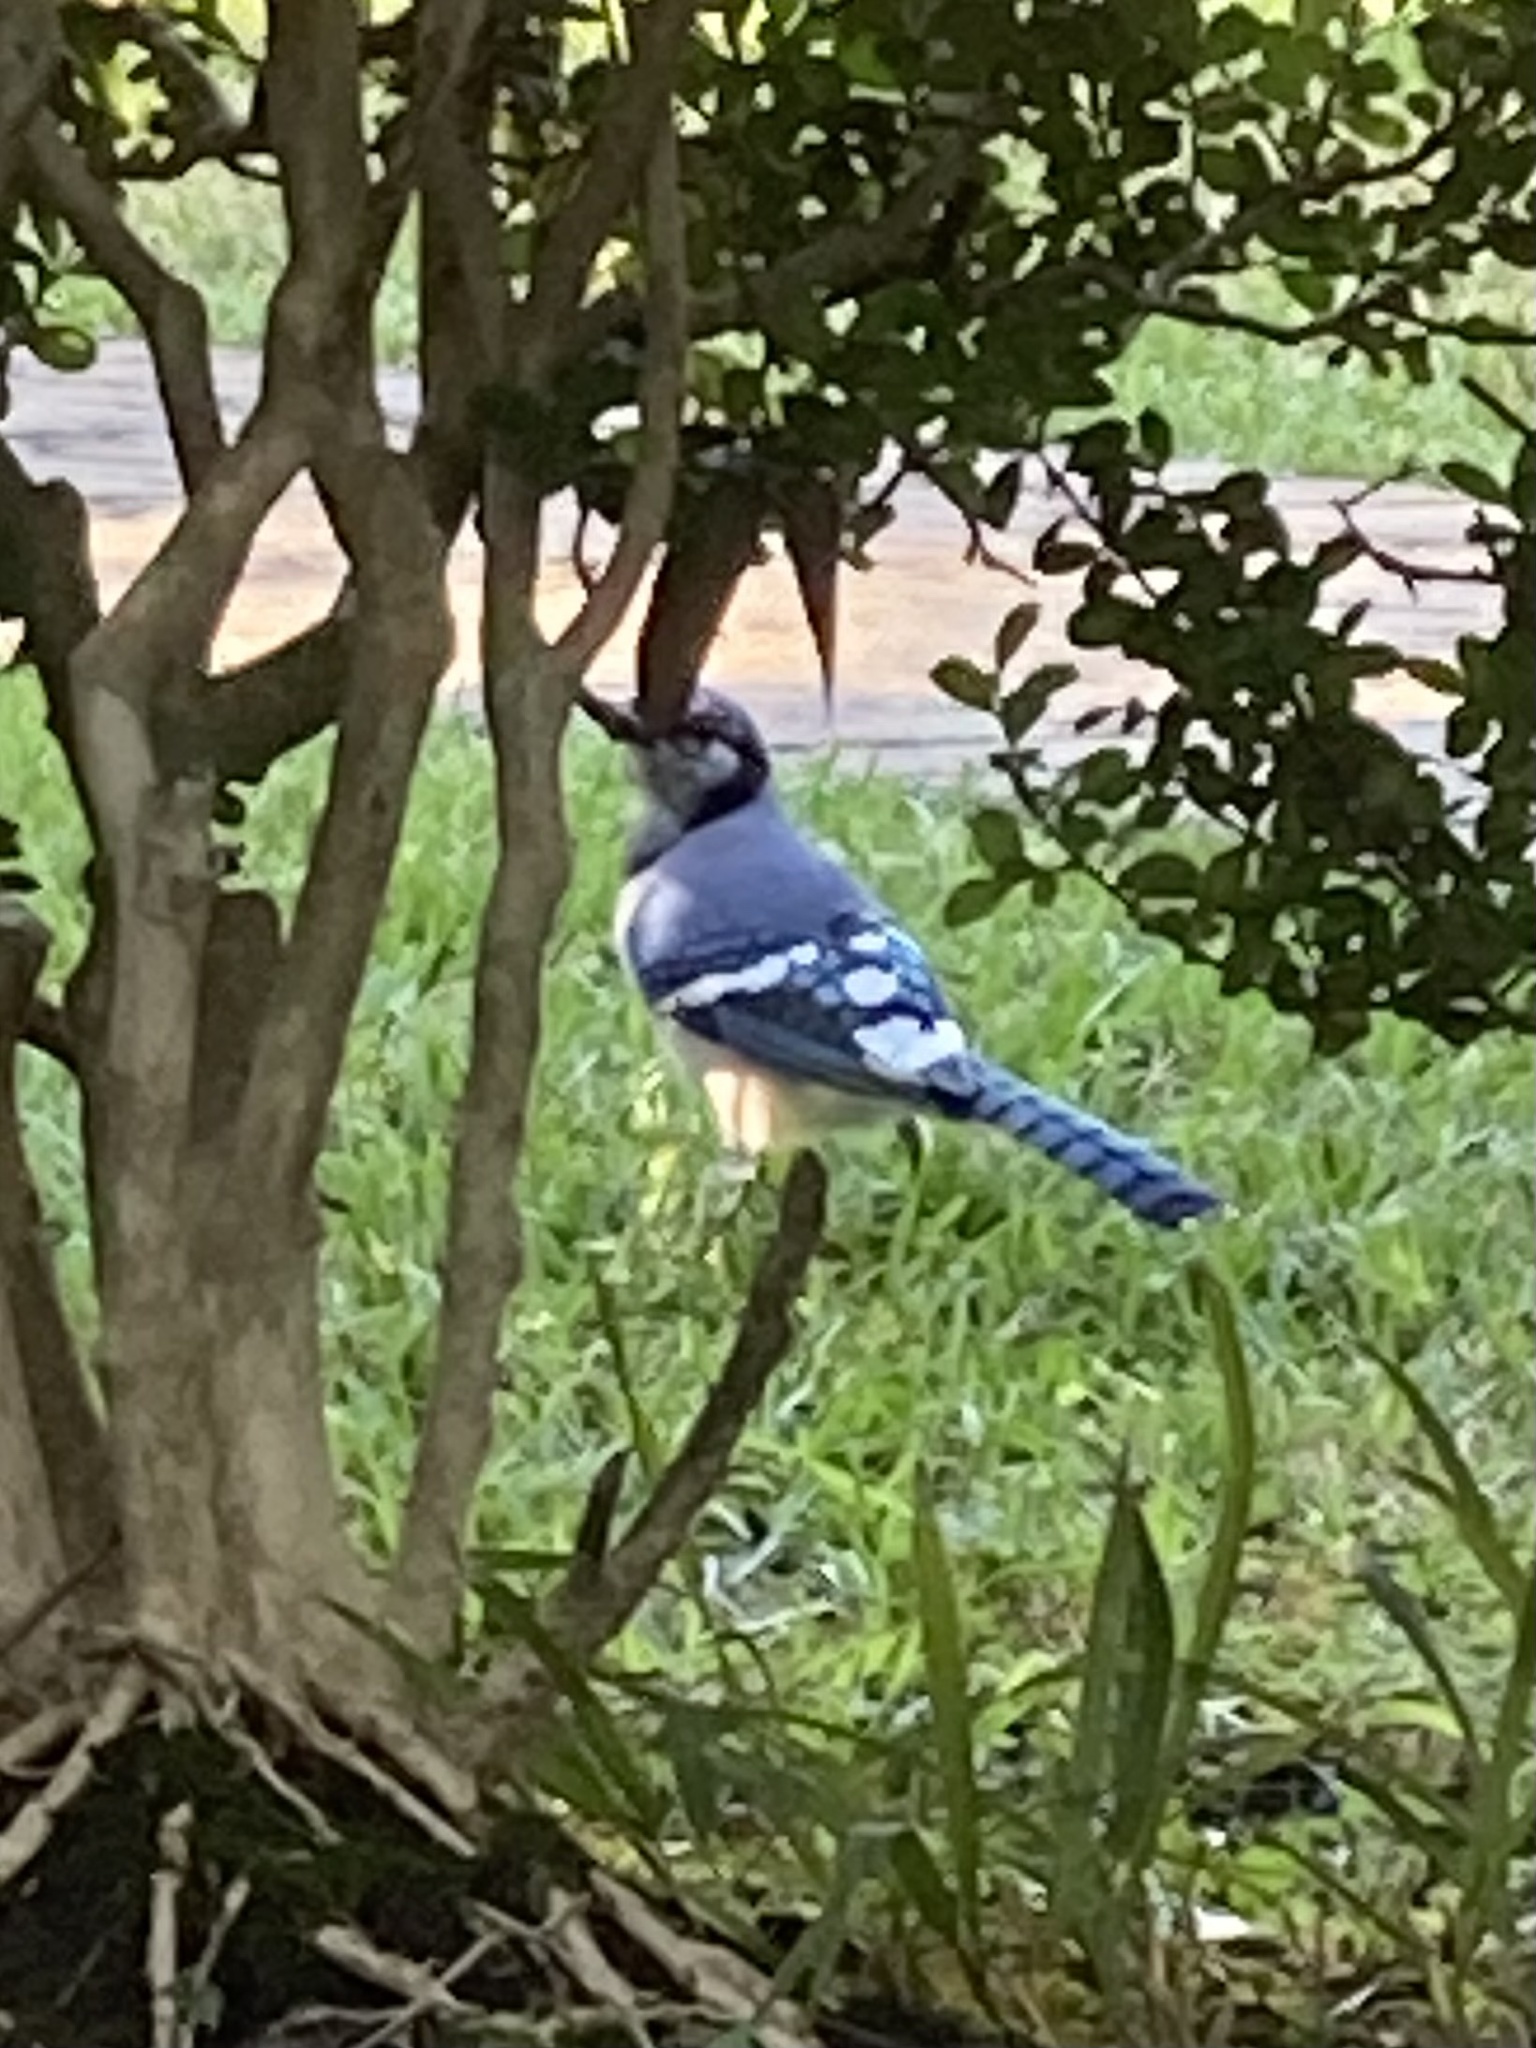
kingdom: Animalia
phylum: Chordata
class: Aves
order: Passeriformes
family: Corvidae
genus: Cyanocitta
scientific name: Cyanocitta cristata
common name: Blue jay
